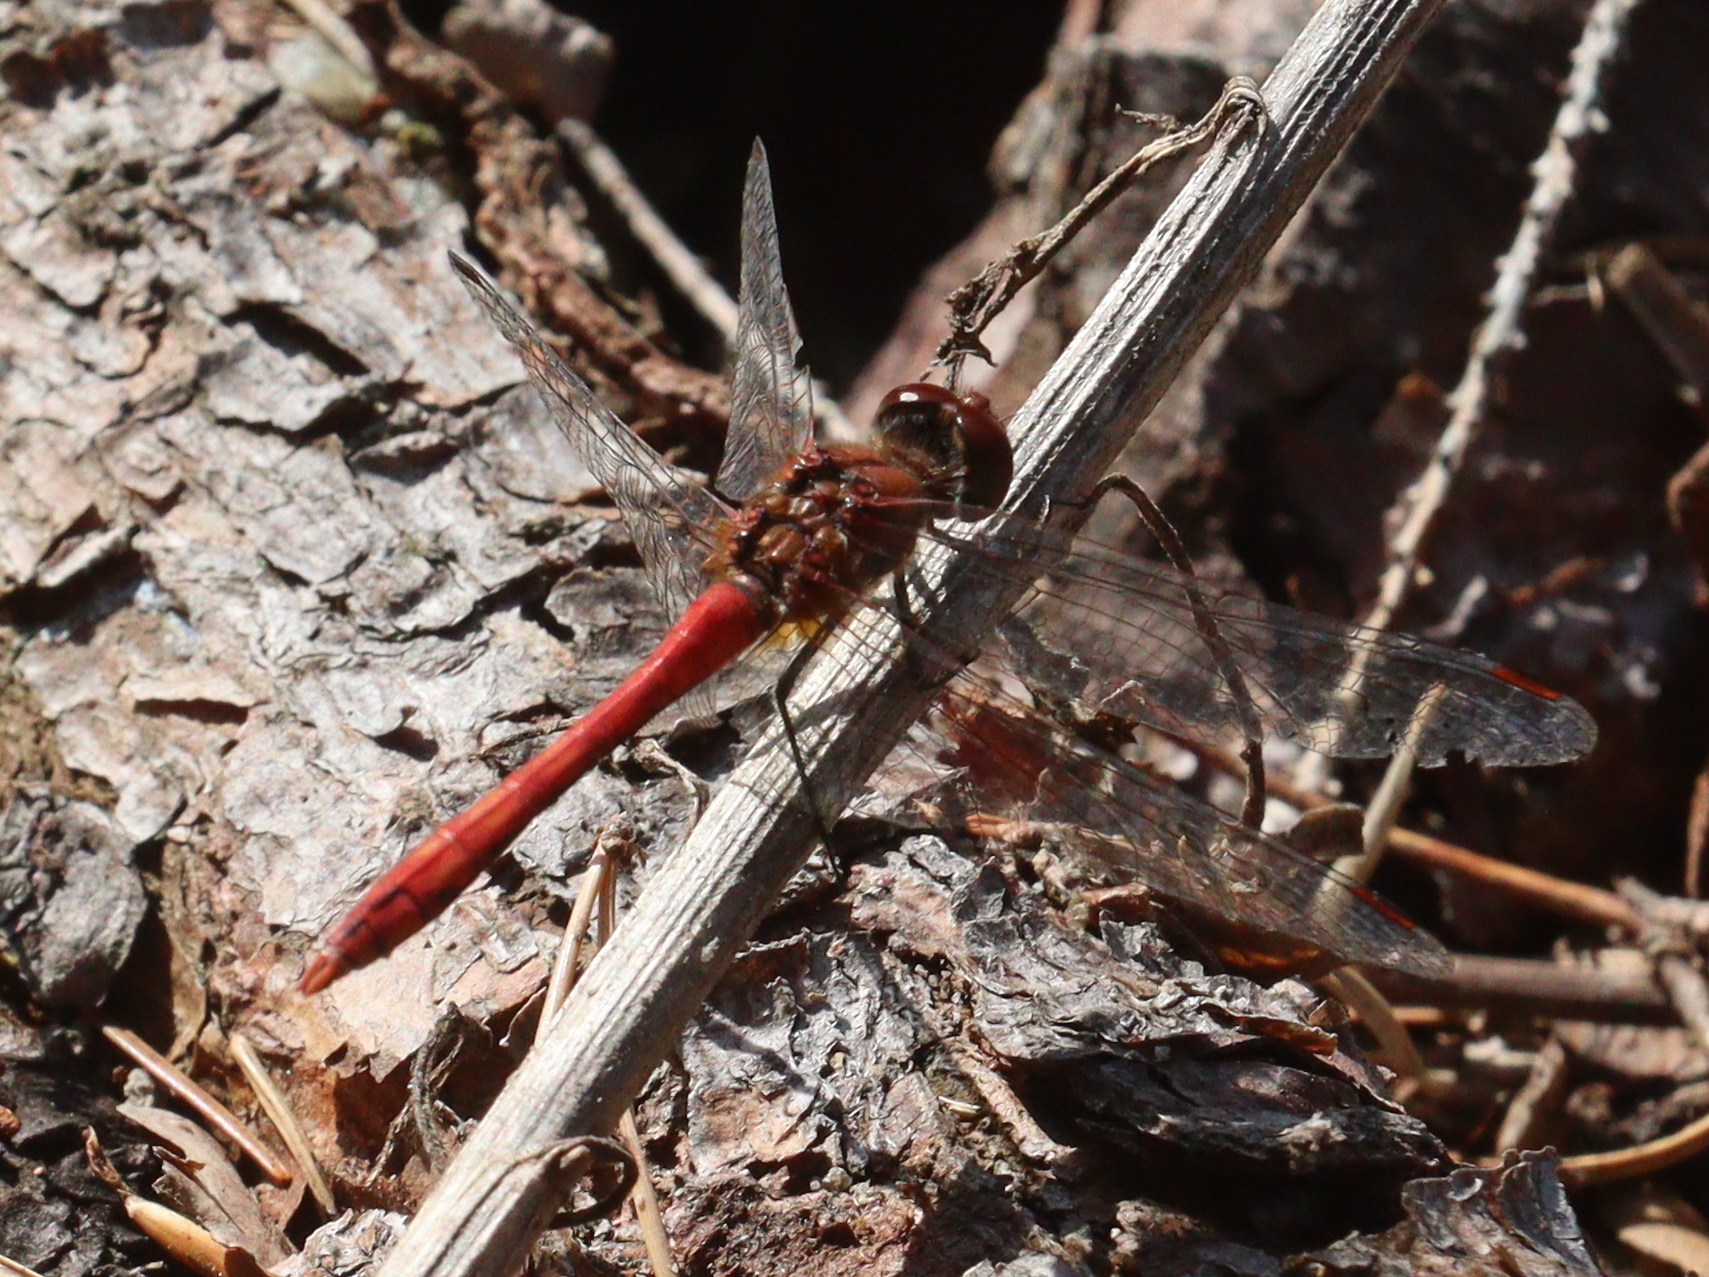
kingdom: Animalia
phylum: Arthropoda
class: Insecta
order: Odonata
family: Libellulidae
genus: Sympetrum
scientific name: Sympetrum sanguineum
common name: Ruddy darter
